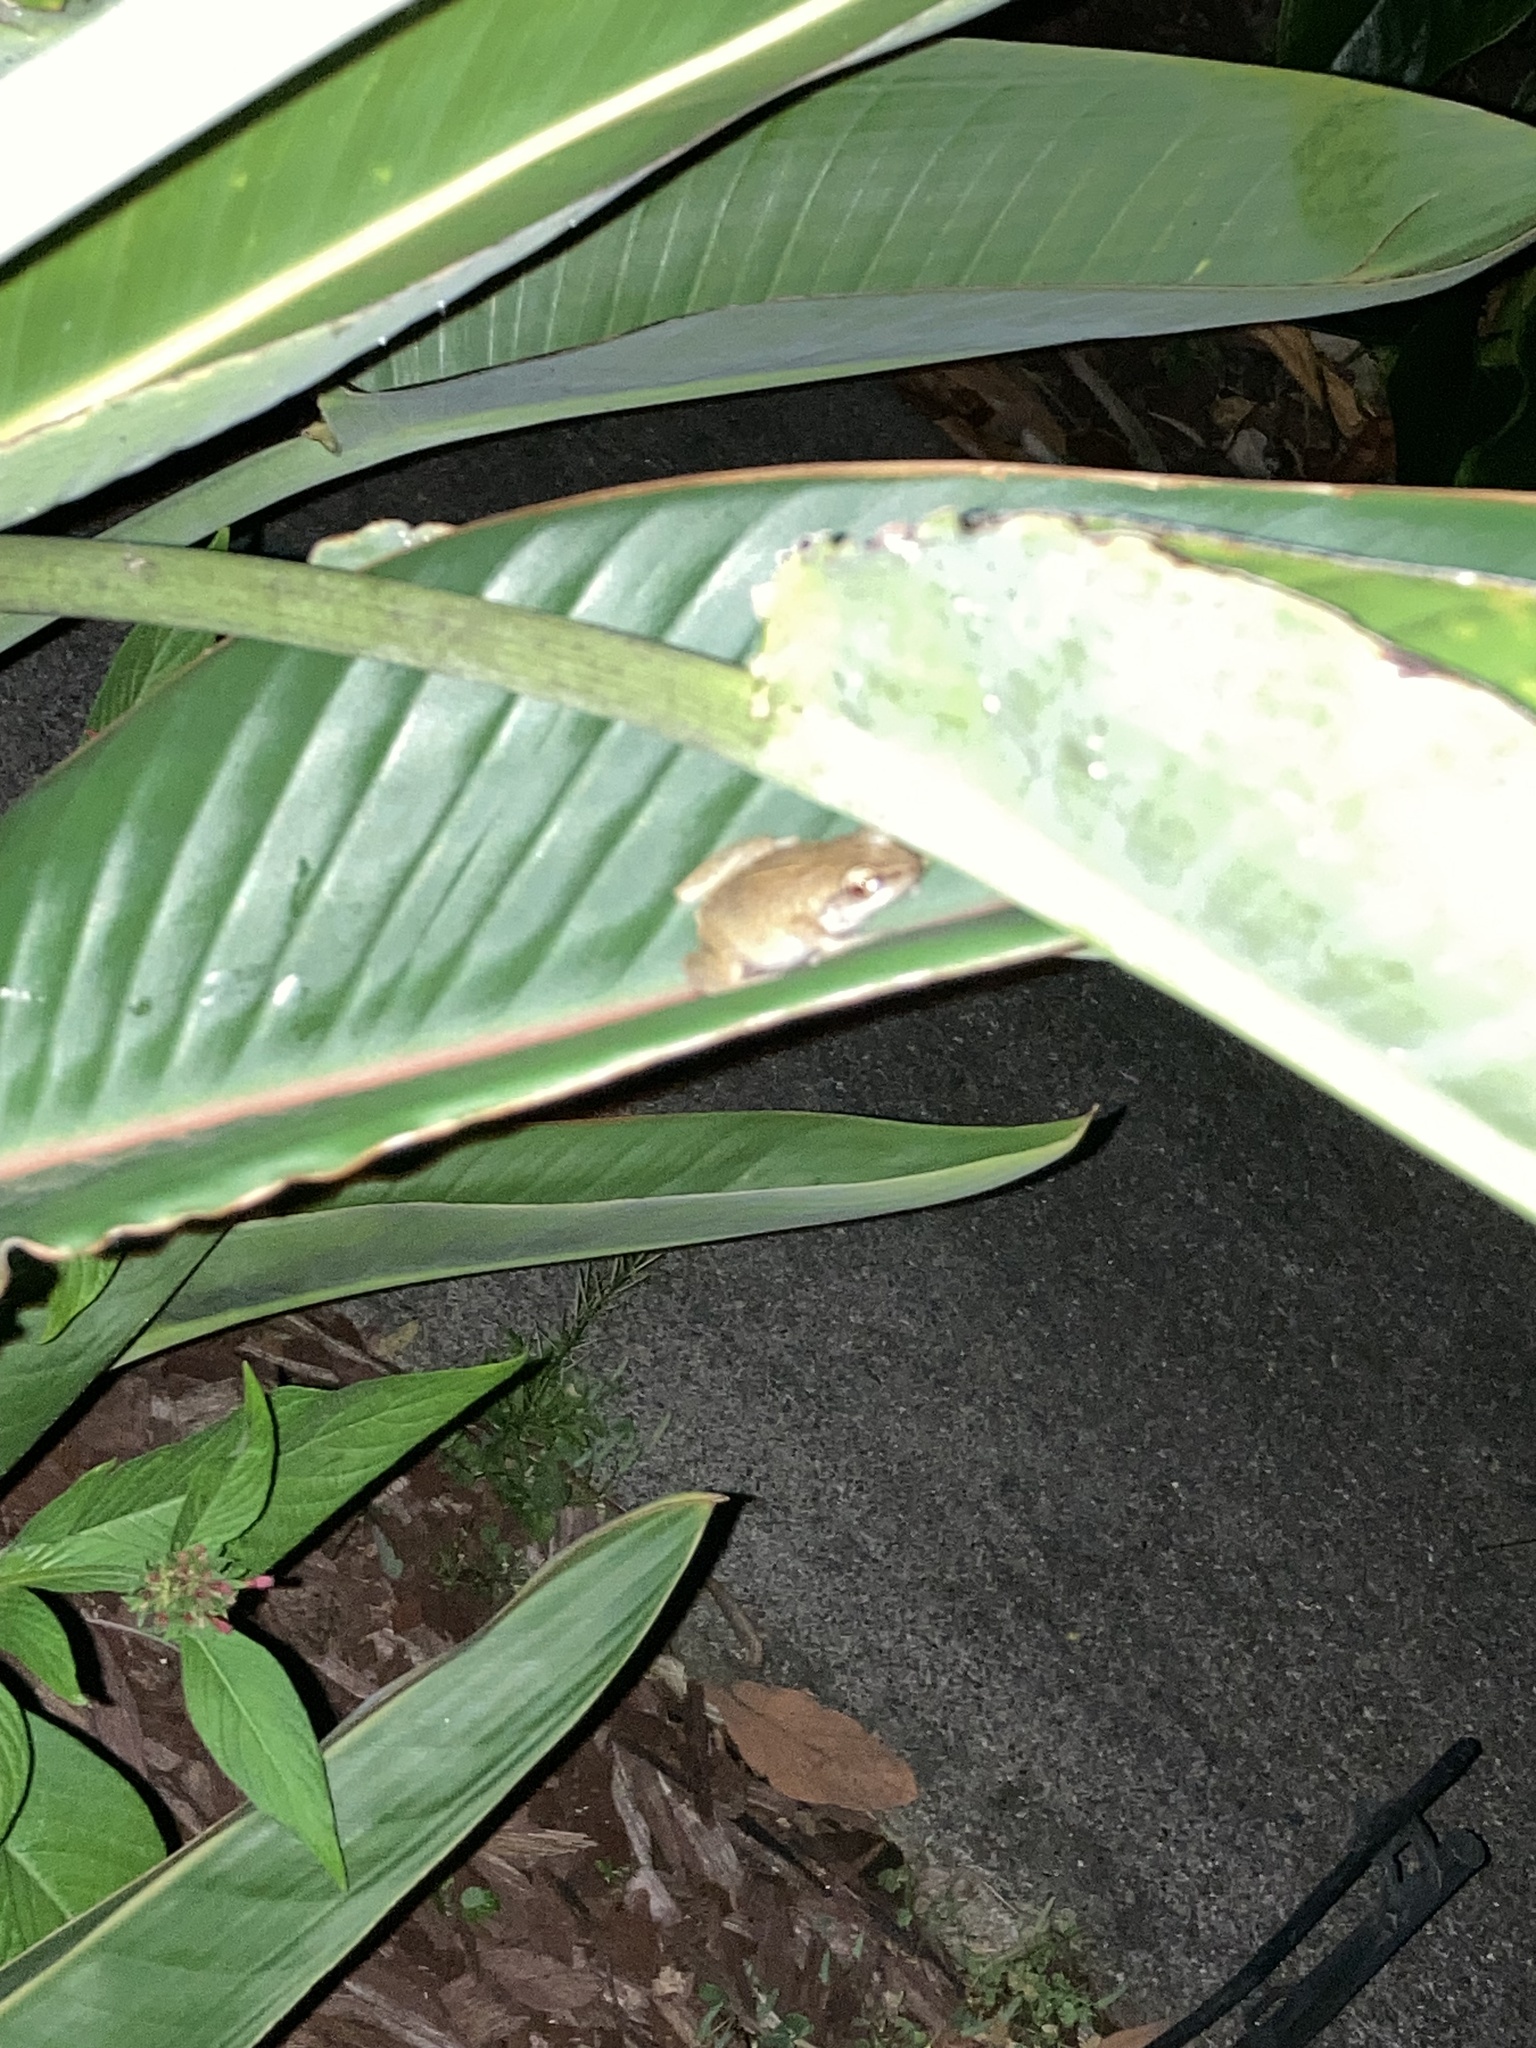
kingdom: Animalia
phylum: Chordata
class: Amphibia
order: Anura
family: Eleutherodactylidae
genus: Eleutherodactylus
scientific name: Eleutherodactylus coqui
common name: Coqui frog
